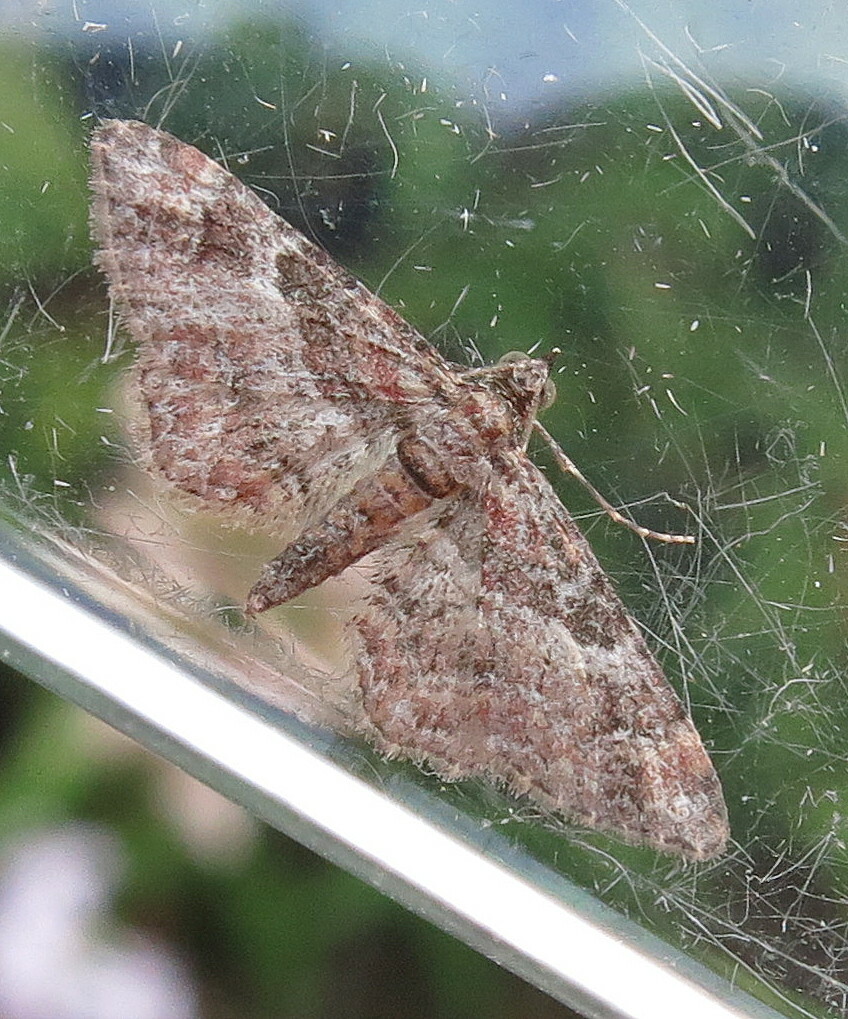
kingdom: Animalia
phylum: Arthropoda
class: Insecta
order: Lepidoptera
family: Geometridae
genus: Gymnoscelis
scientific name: Gymnoscelis rufifasciata
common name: Double-striped pug
